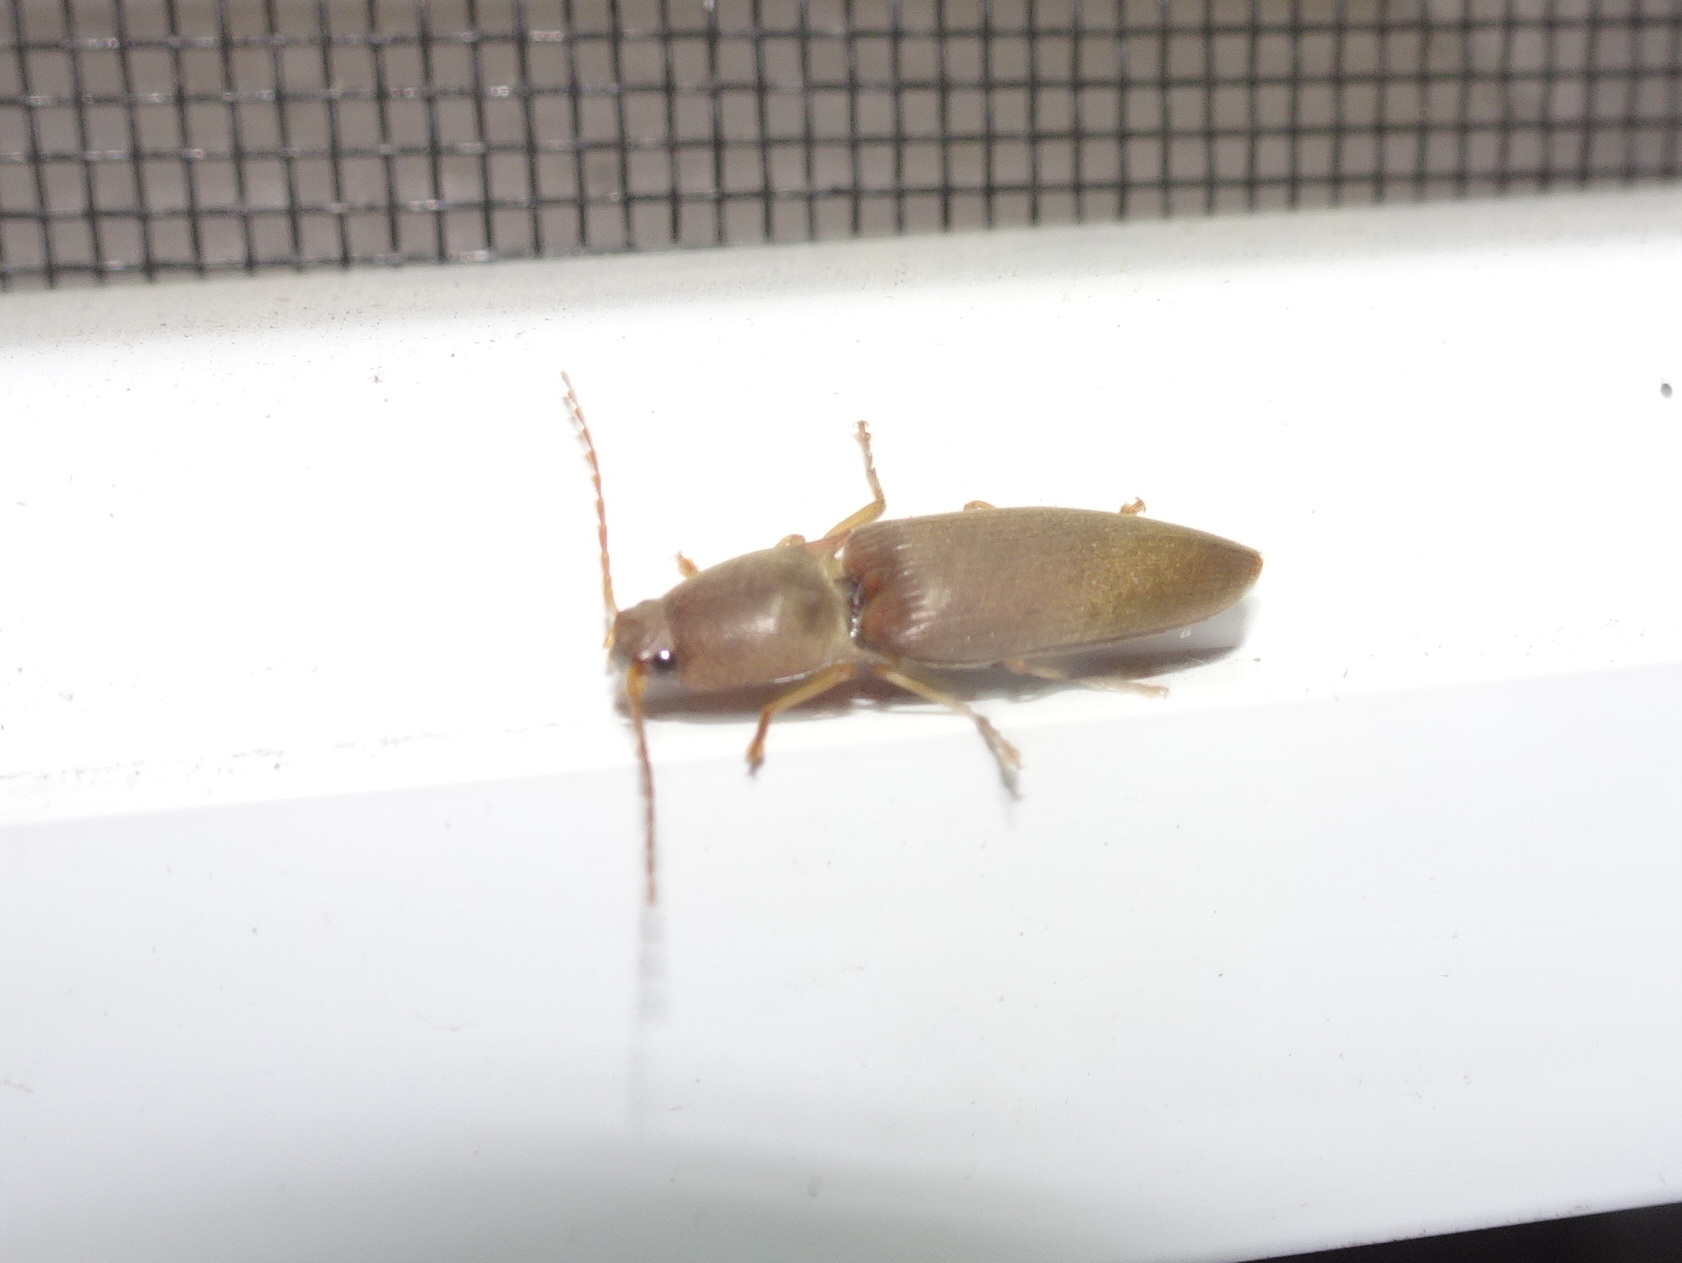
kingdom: Animalia
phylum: Arthropoda
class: Insecta
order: Coleoptera
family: Elateridae
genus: Monocrepidius
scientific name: Monocrepidius lividus
